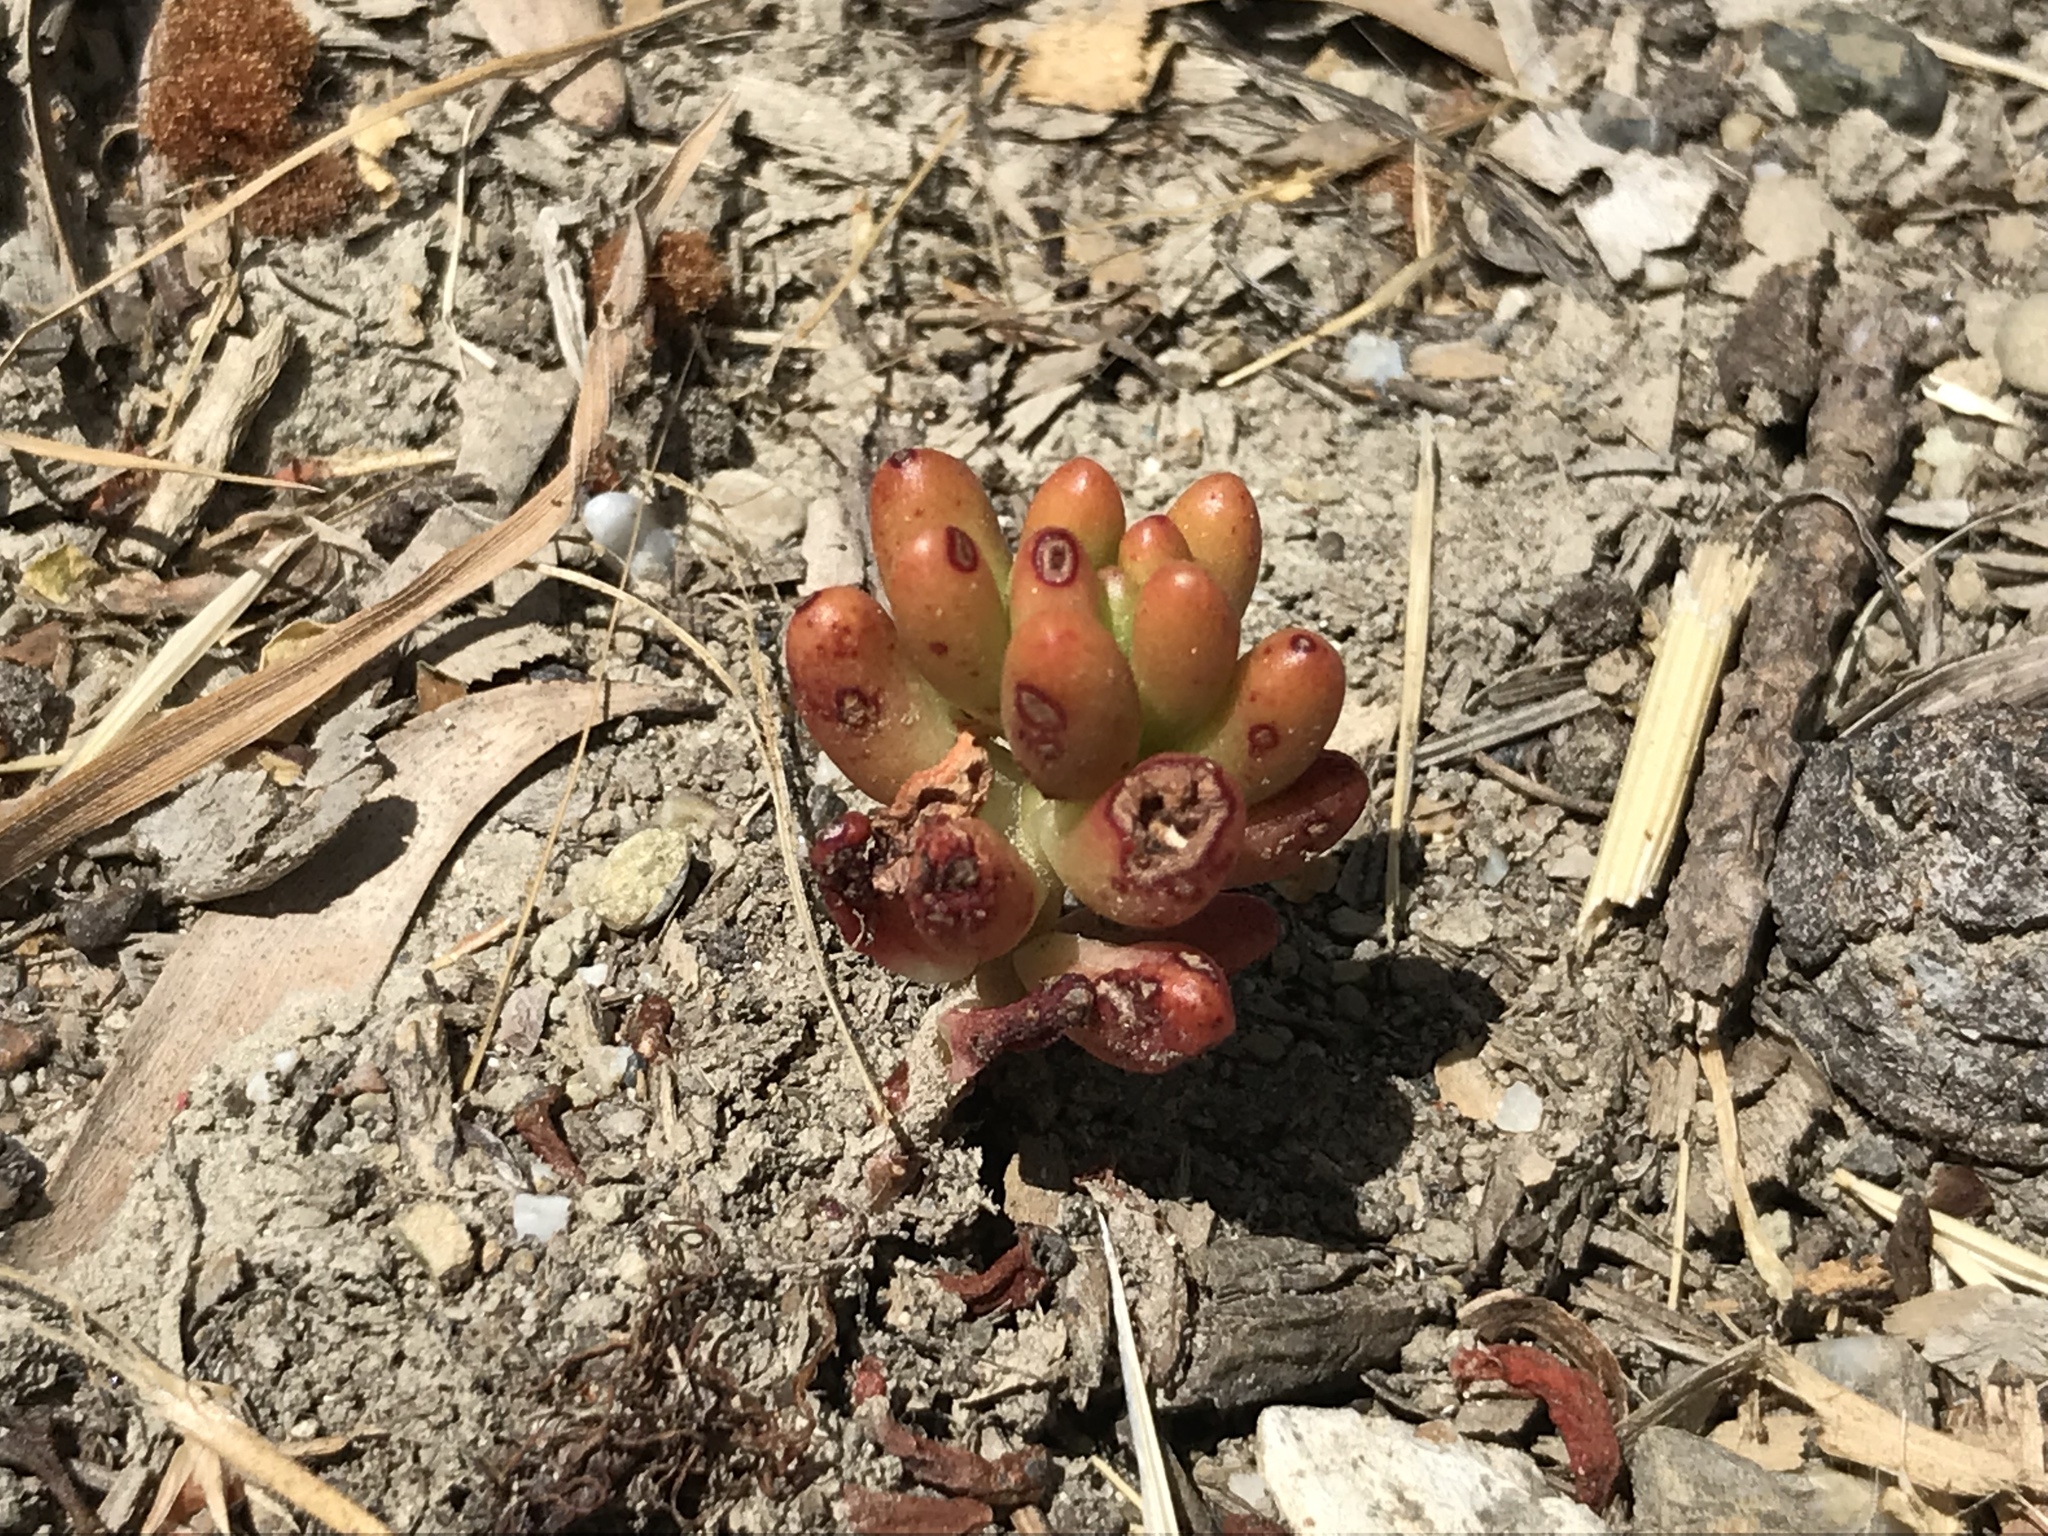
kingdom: Plantae
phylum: Tracheophyta
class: Magnoliopsida
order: Saxifragales
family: Crassulaceae
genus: Sedum
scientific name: Sedum album
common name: White stonecrop
